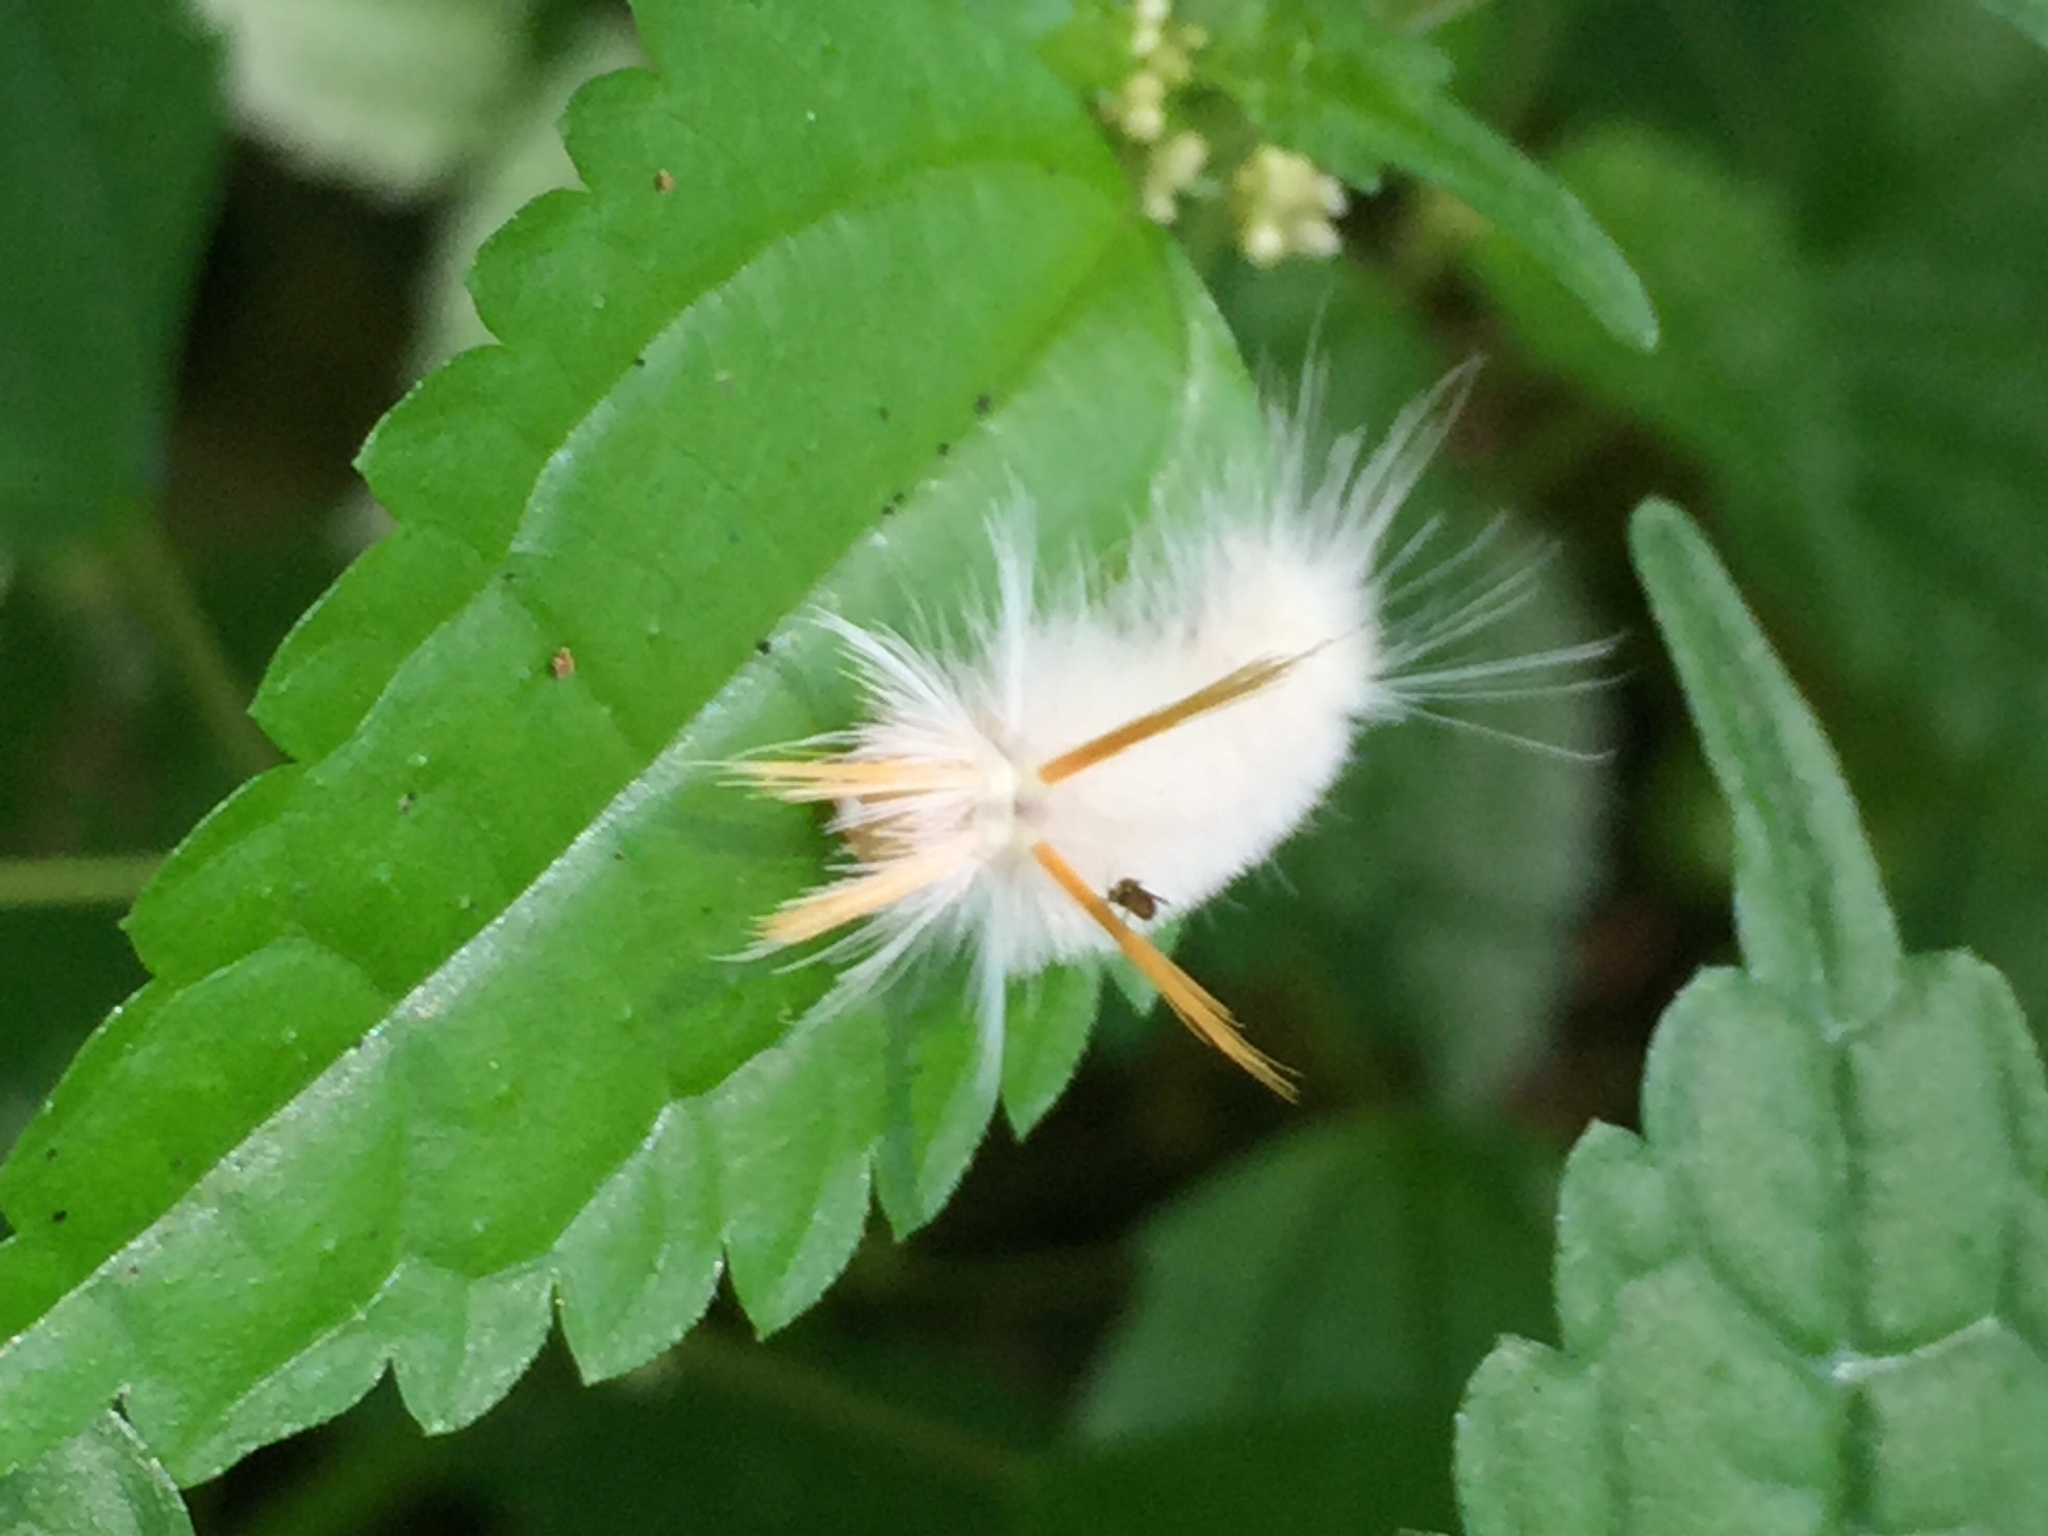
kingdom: Animalia
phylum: Arthropoda
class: Insecta
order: Lepidoptera
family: Erebidae
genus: Halysidota
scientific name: Halysidota harrisii
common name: Sycamore tussock moth
